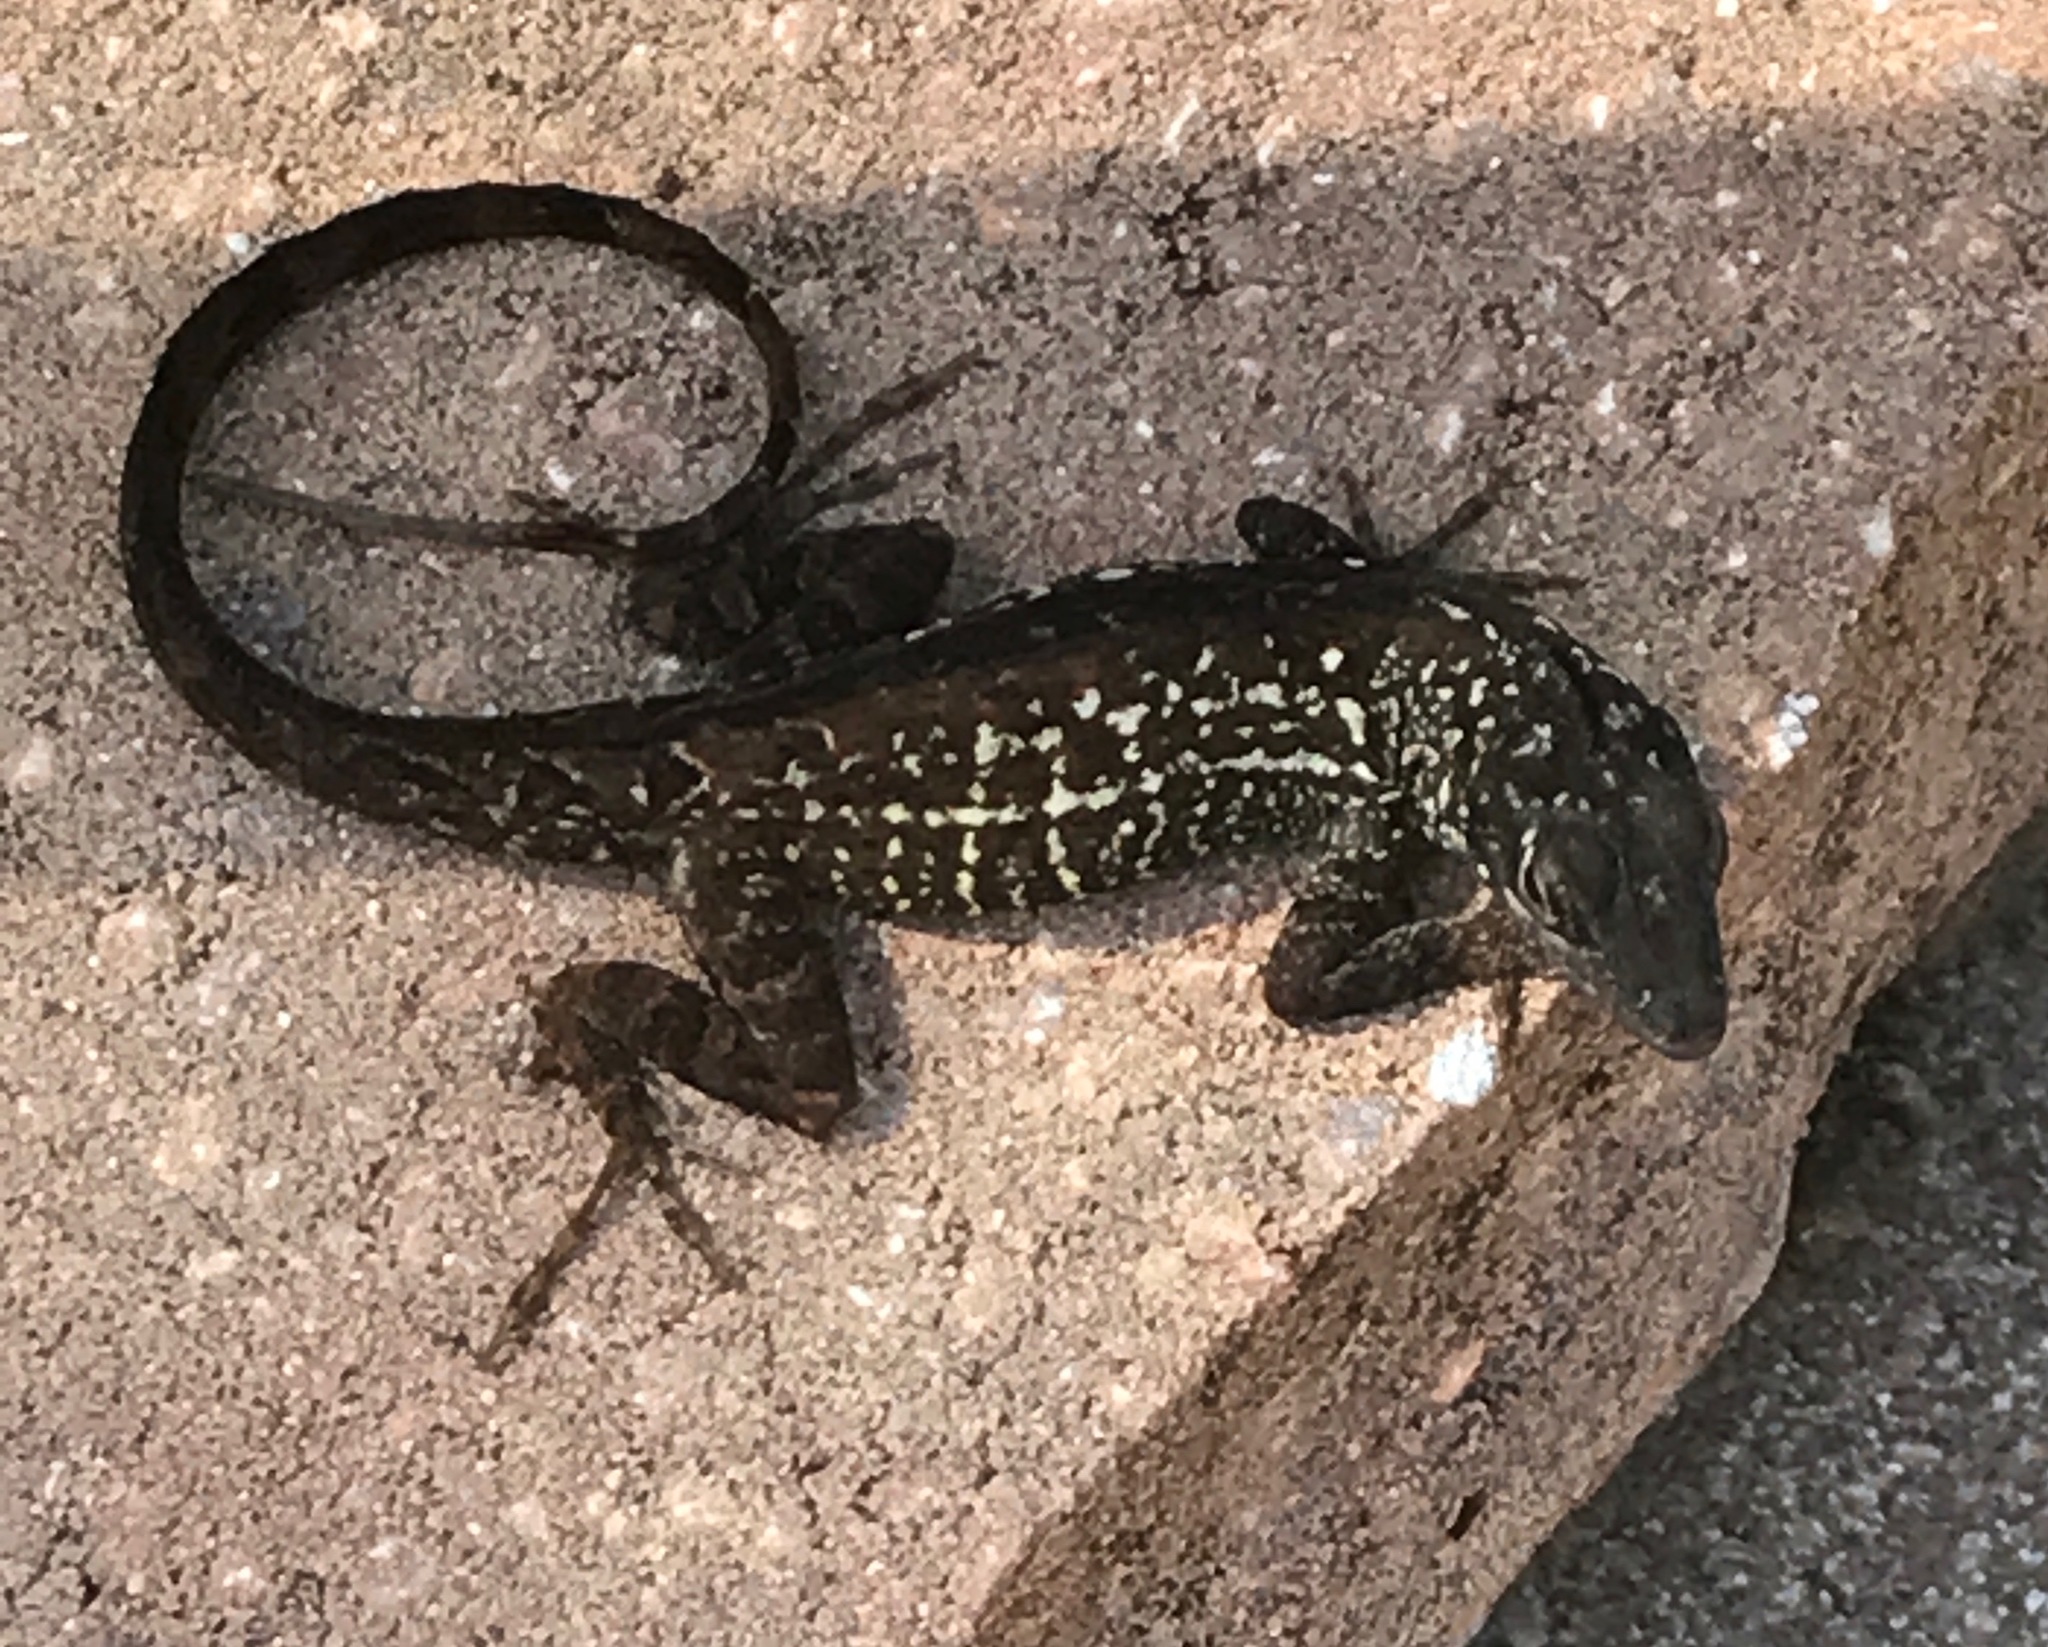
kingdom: Animalia
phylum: Chordata
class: Squamata
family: Dactyloidae
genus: Anolis
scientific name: Anolis sagrei
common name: Brown anole
